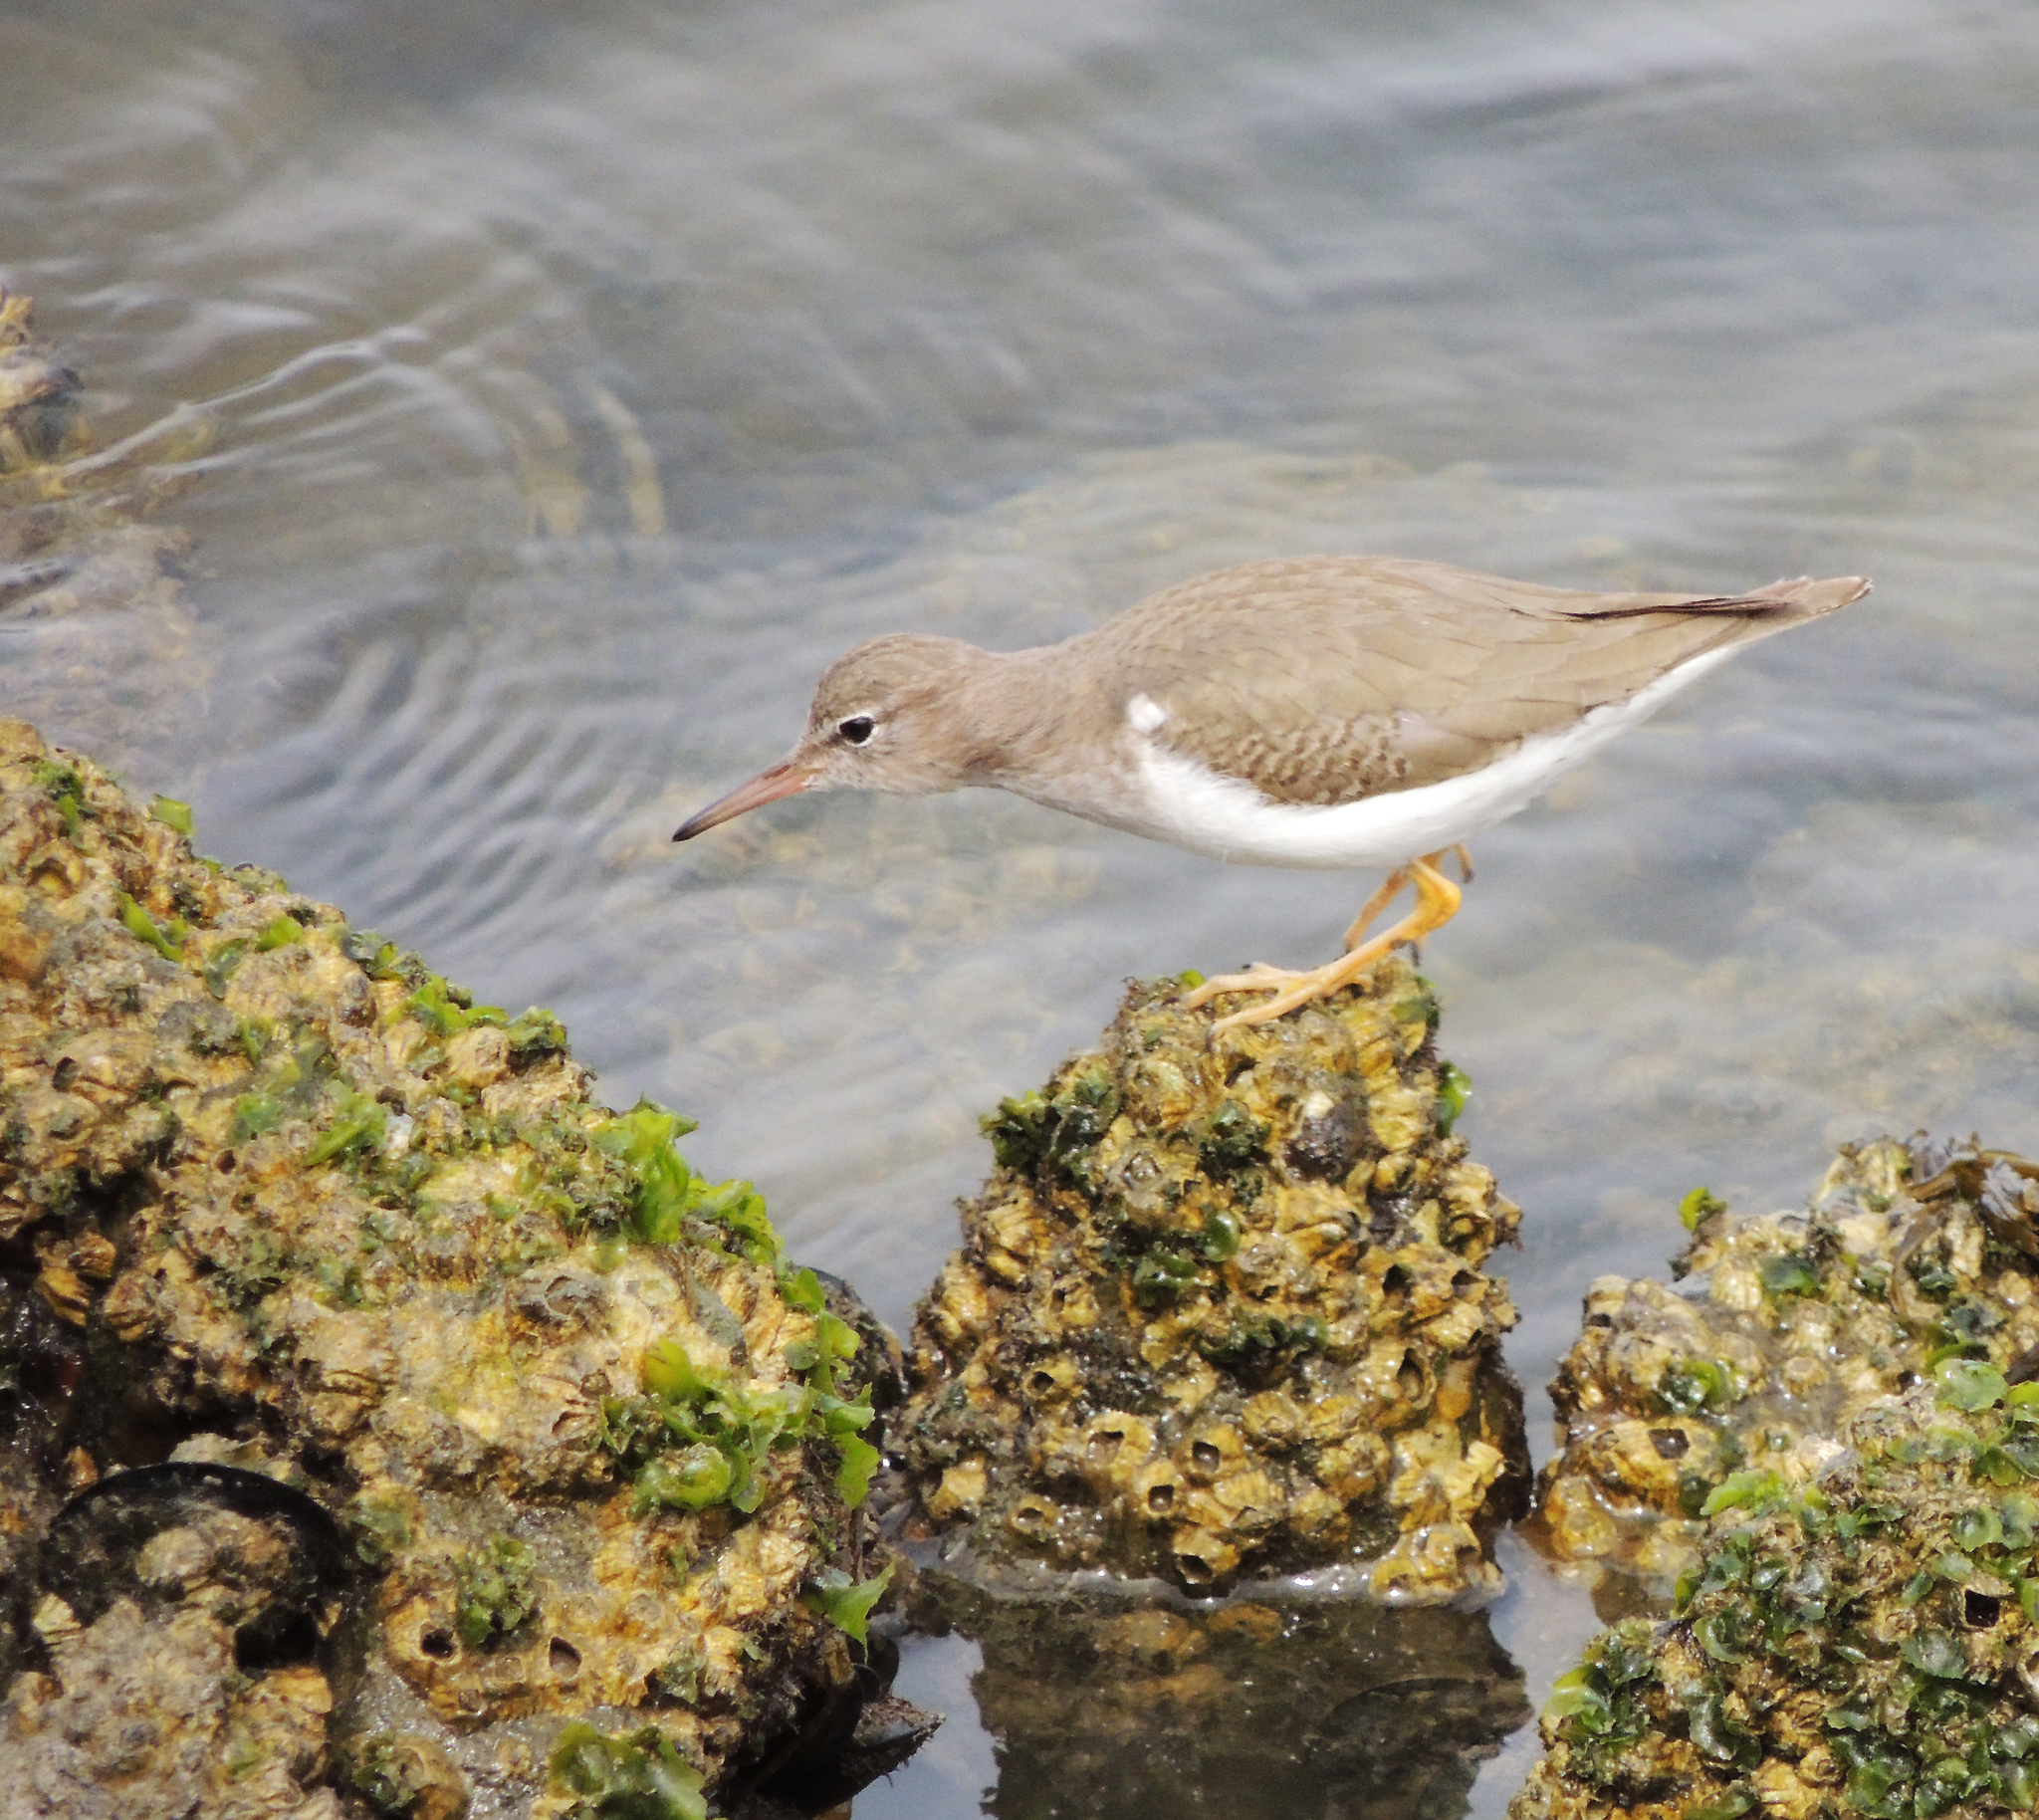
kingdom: Animalia
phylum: Chordata
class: Aves
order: Charadriiformes
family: Scolopacidae
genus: Actitis
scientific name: Actitis macularius
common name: Spotted sandpiper
